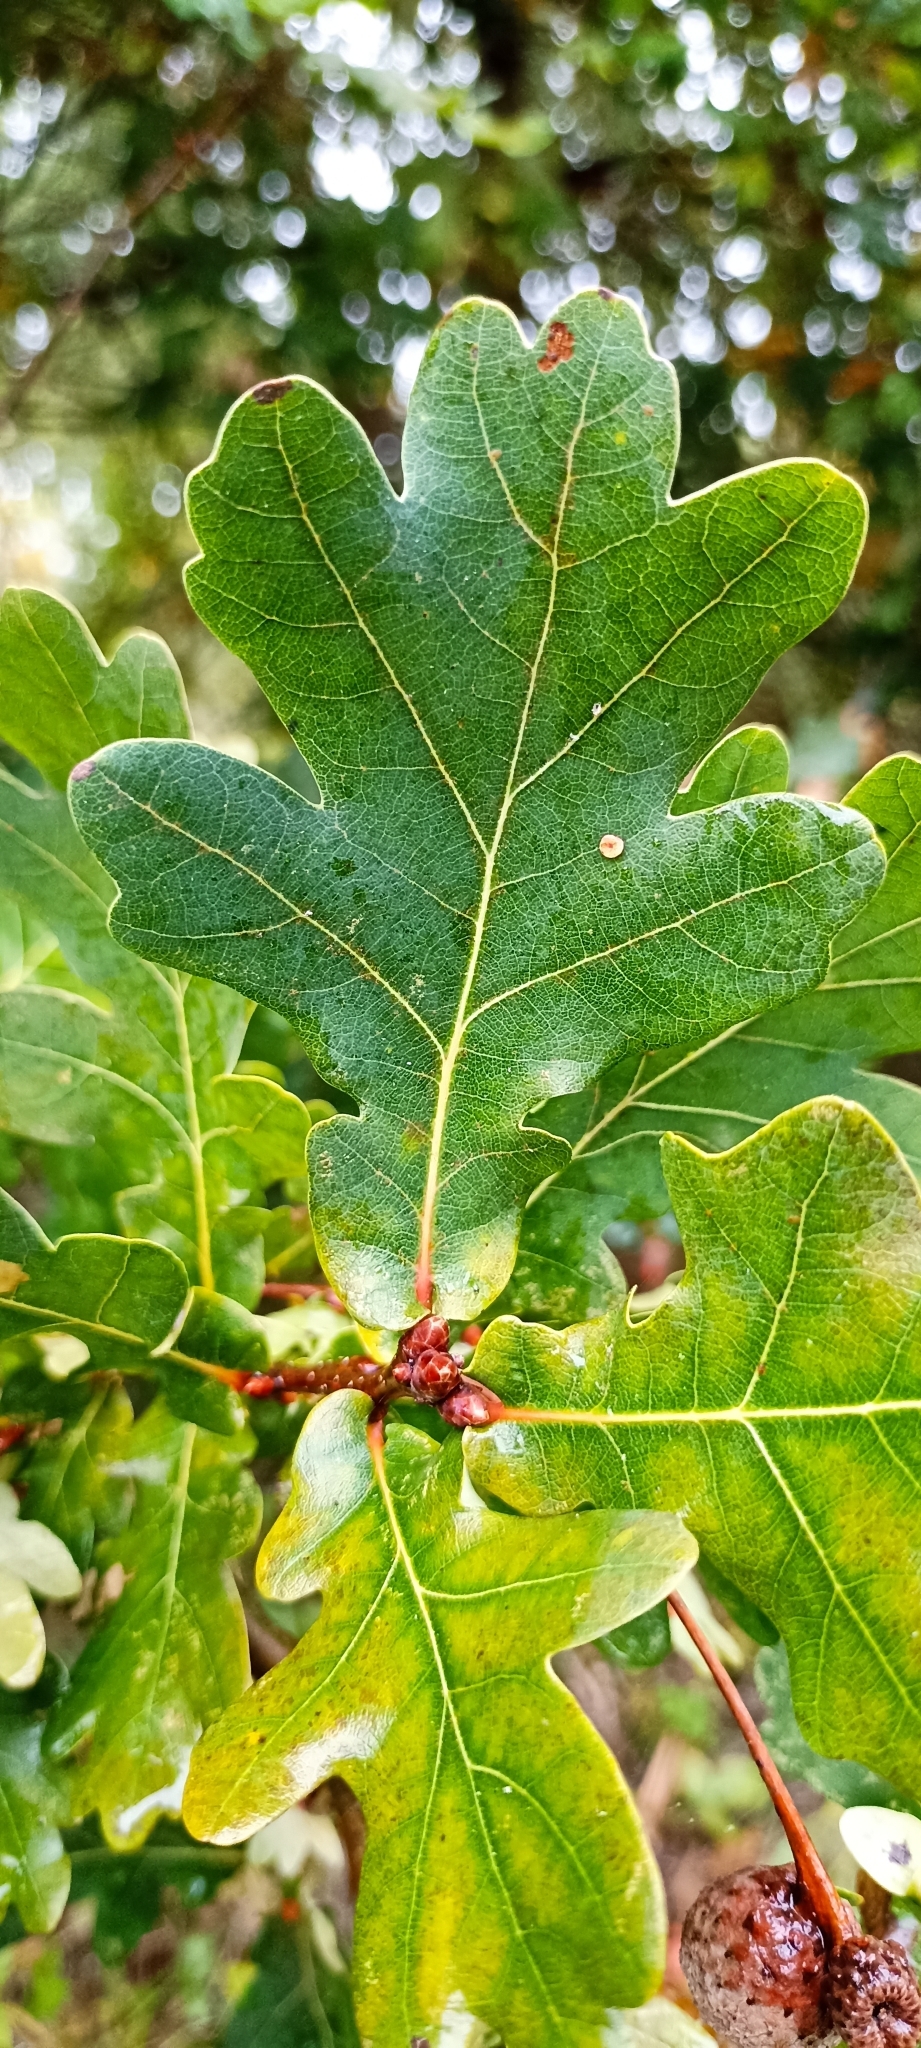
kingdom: Plantae
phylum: Tracheophyta
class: Magnoliopsida
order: Fagales
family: Fagaceae
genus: Quercus
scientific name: Quercus robur
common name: Pedunculate oak
